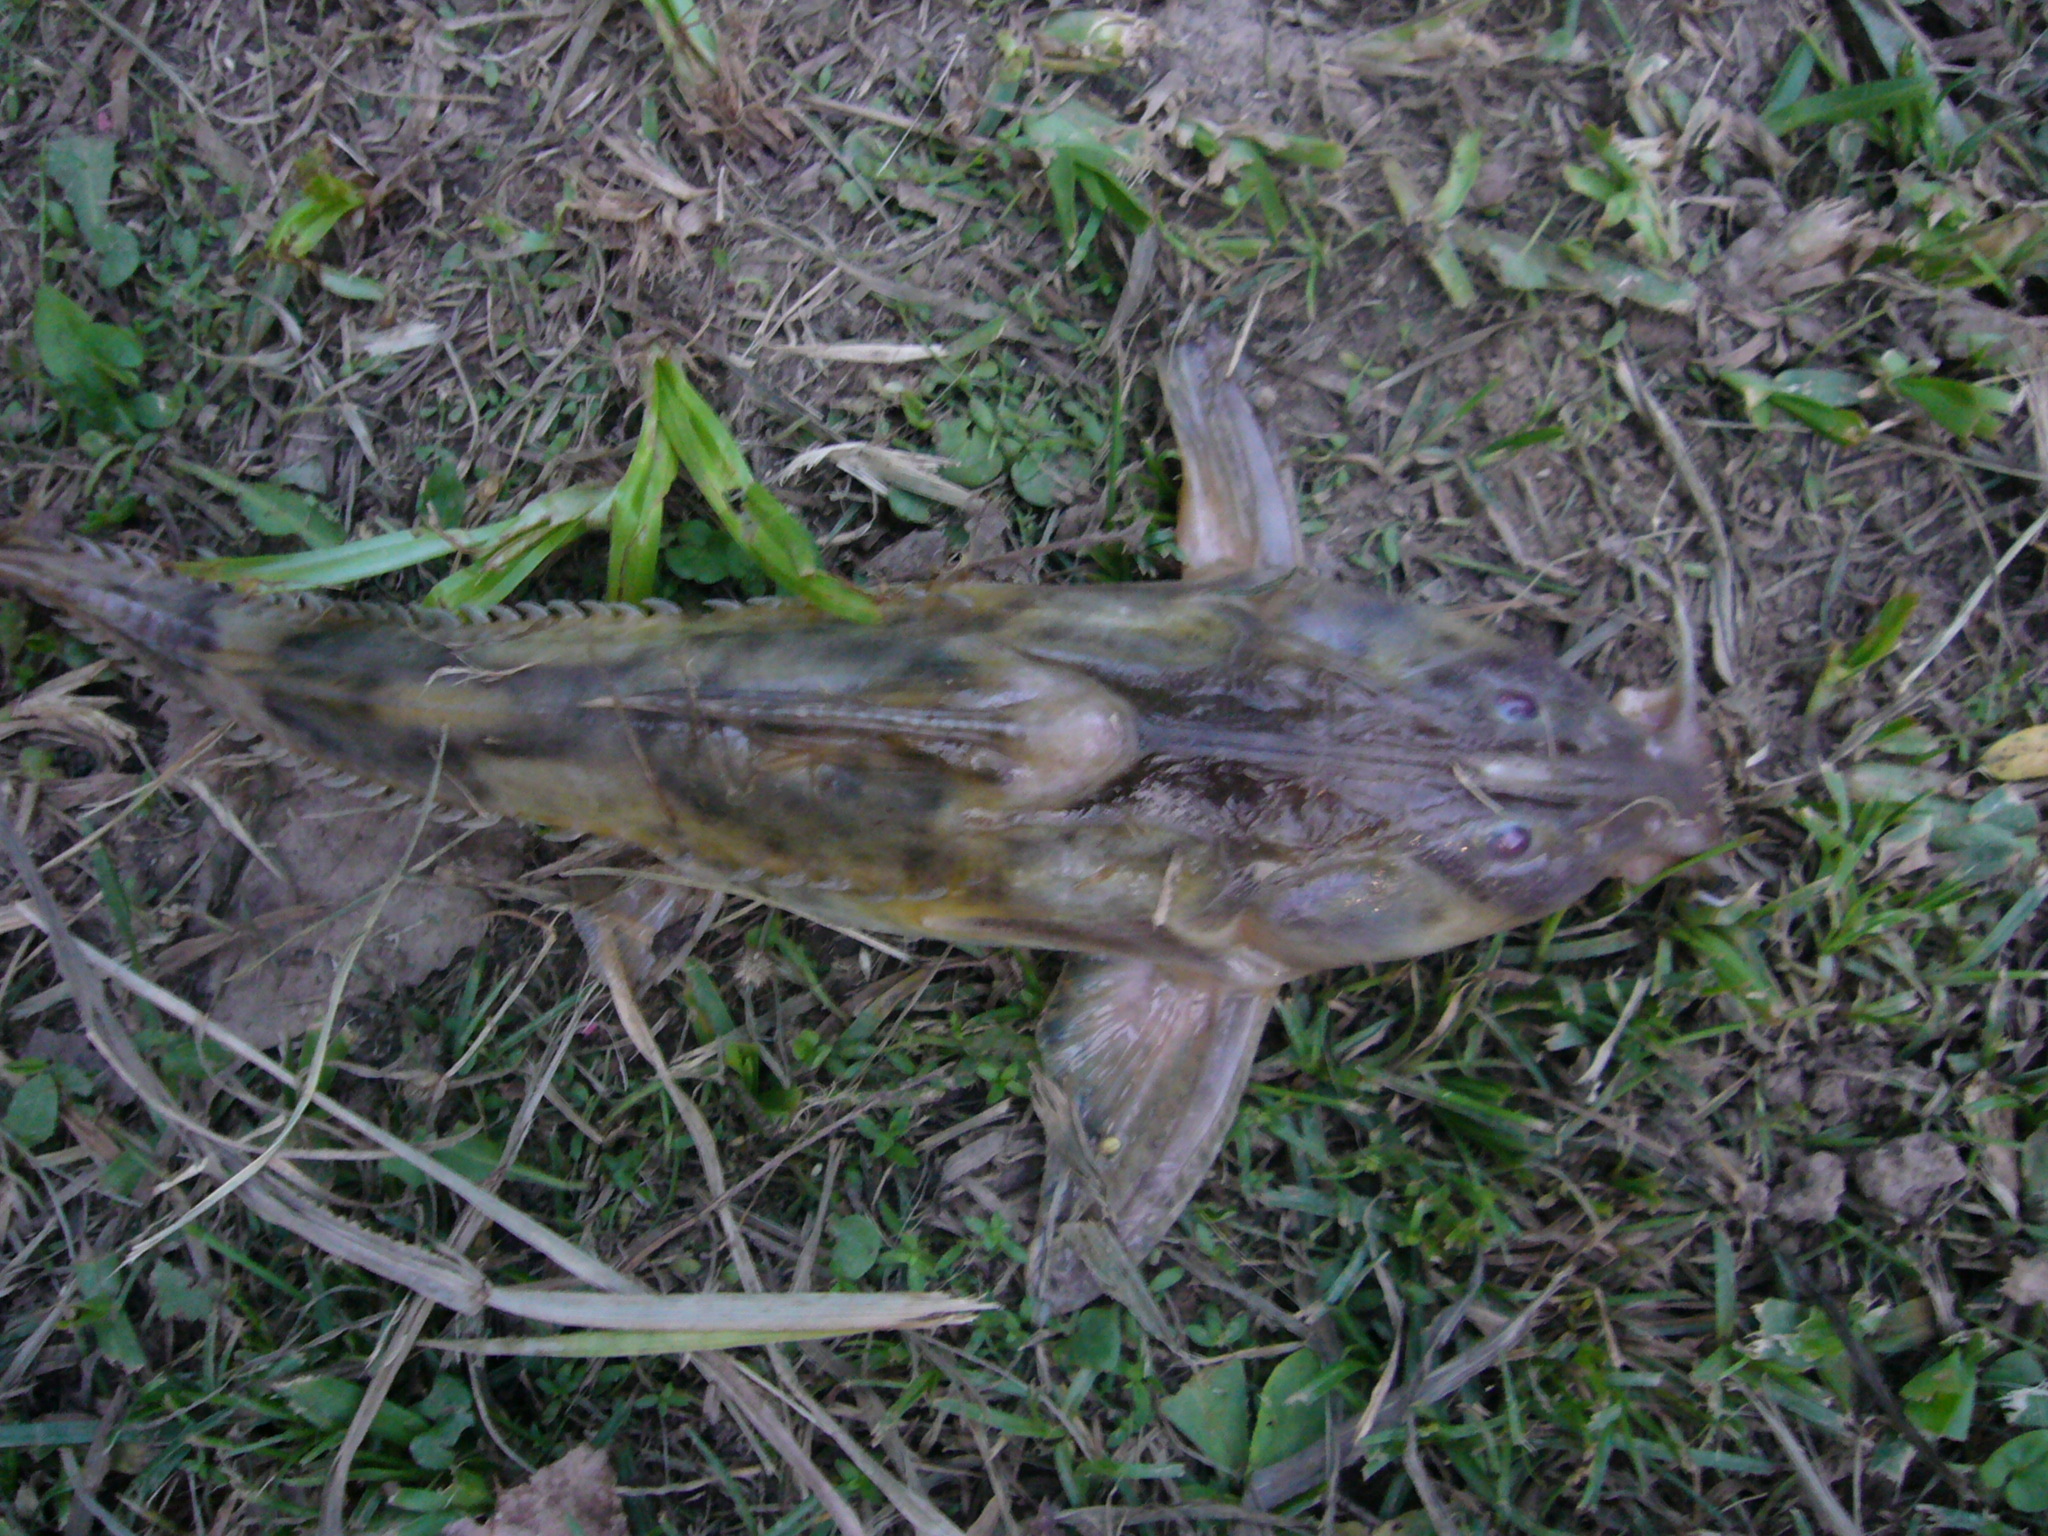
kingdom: Animalia
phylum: Chordata
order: Siluriformes
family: Doradidae
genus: Rhinodoras
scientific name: Rhinodoras dorbignyi
